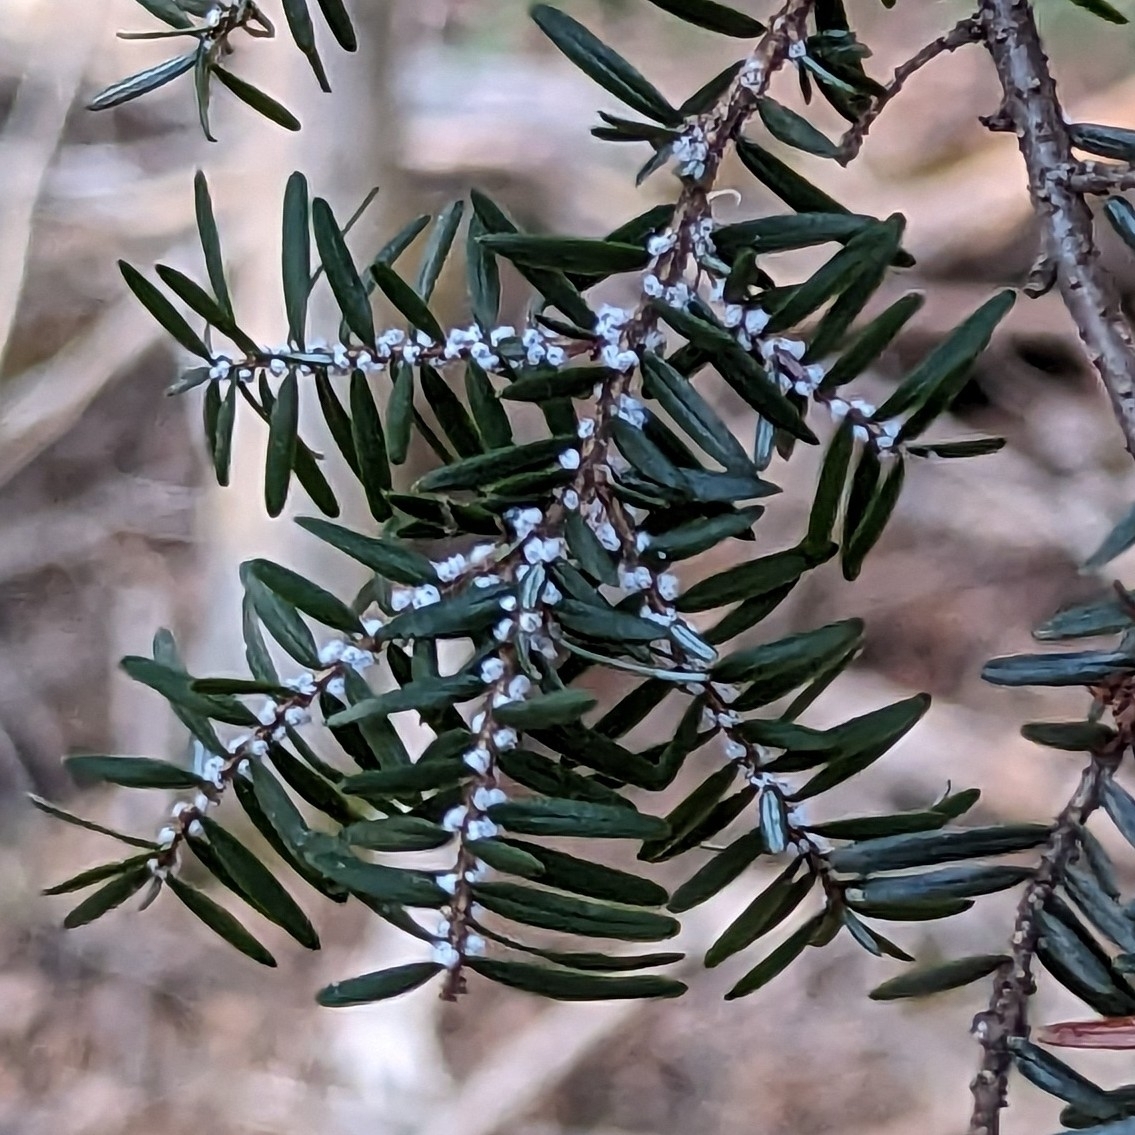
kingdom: Animalia
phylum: Arthropoda
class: Insecta
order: Hemiptera
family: Adelgidae
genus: Adelges
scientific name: Adelges tsugae
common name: Hemlock woolly adelgid
